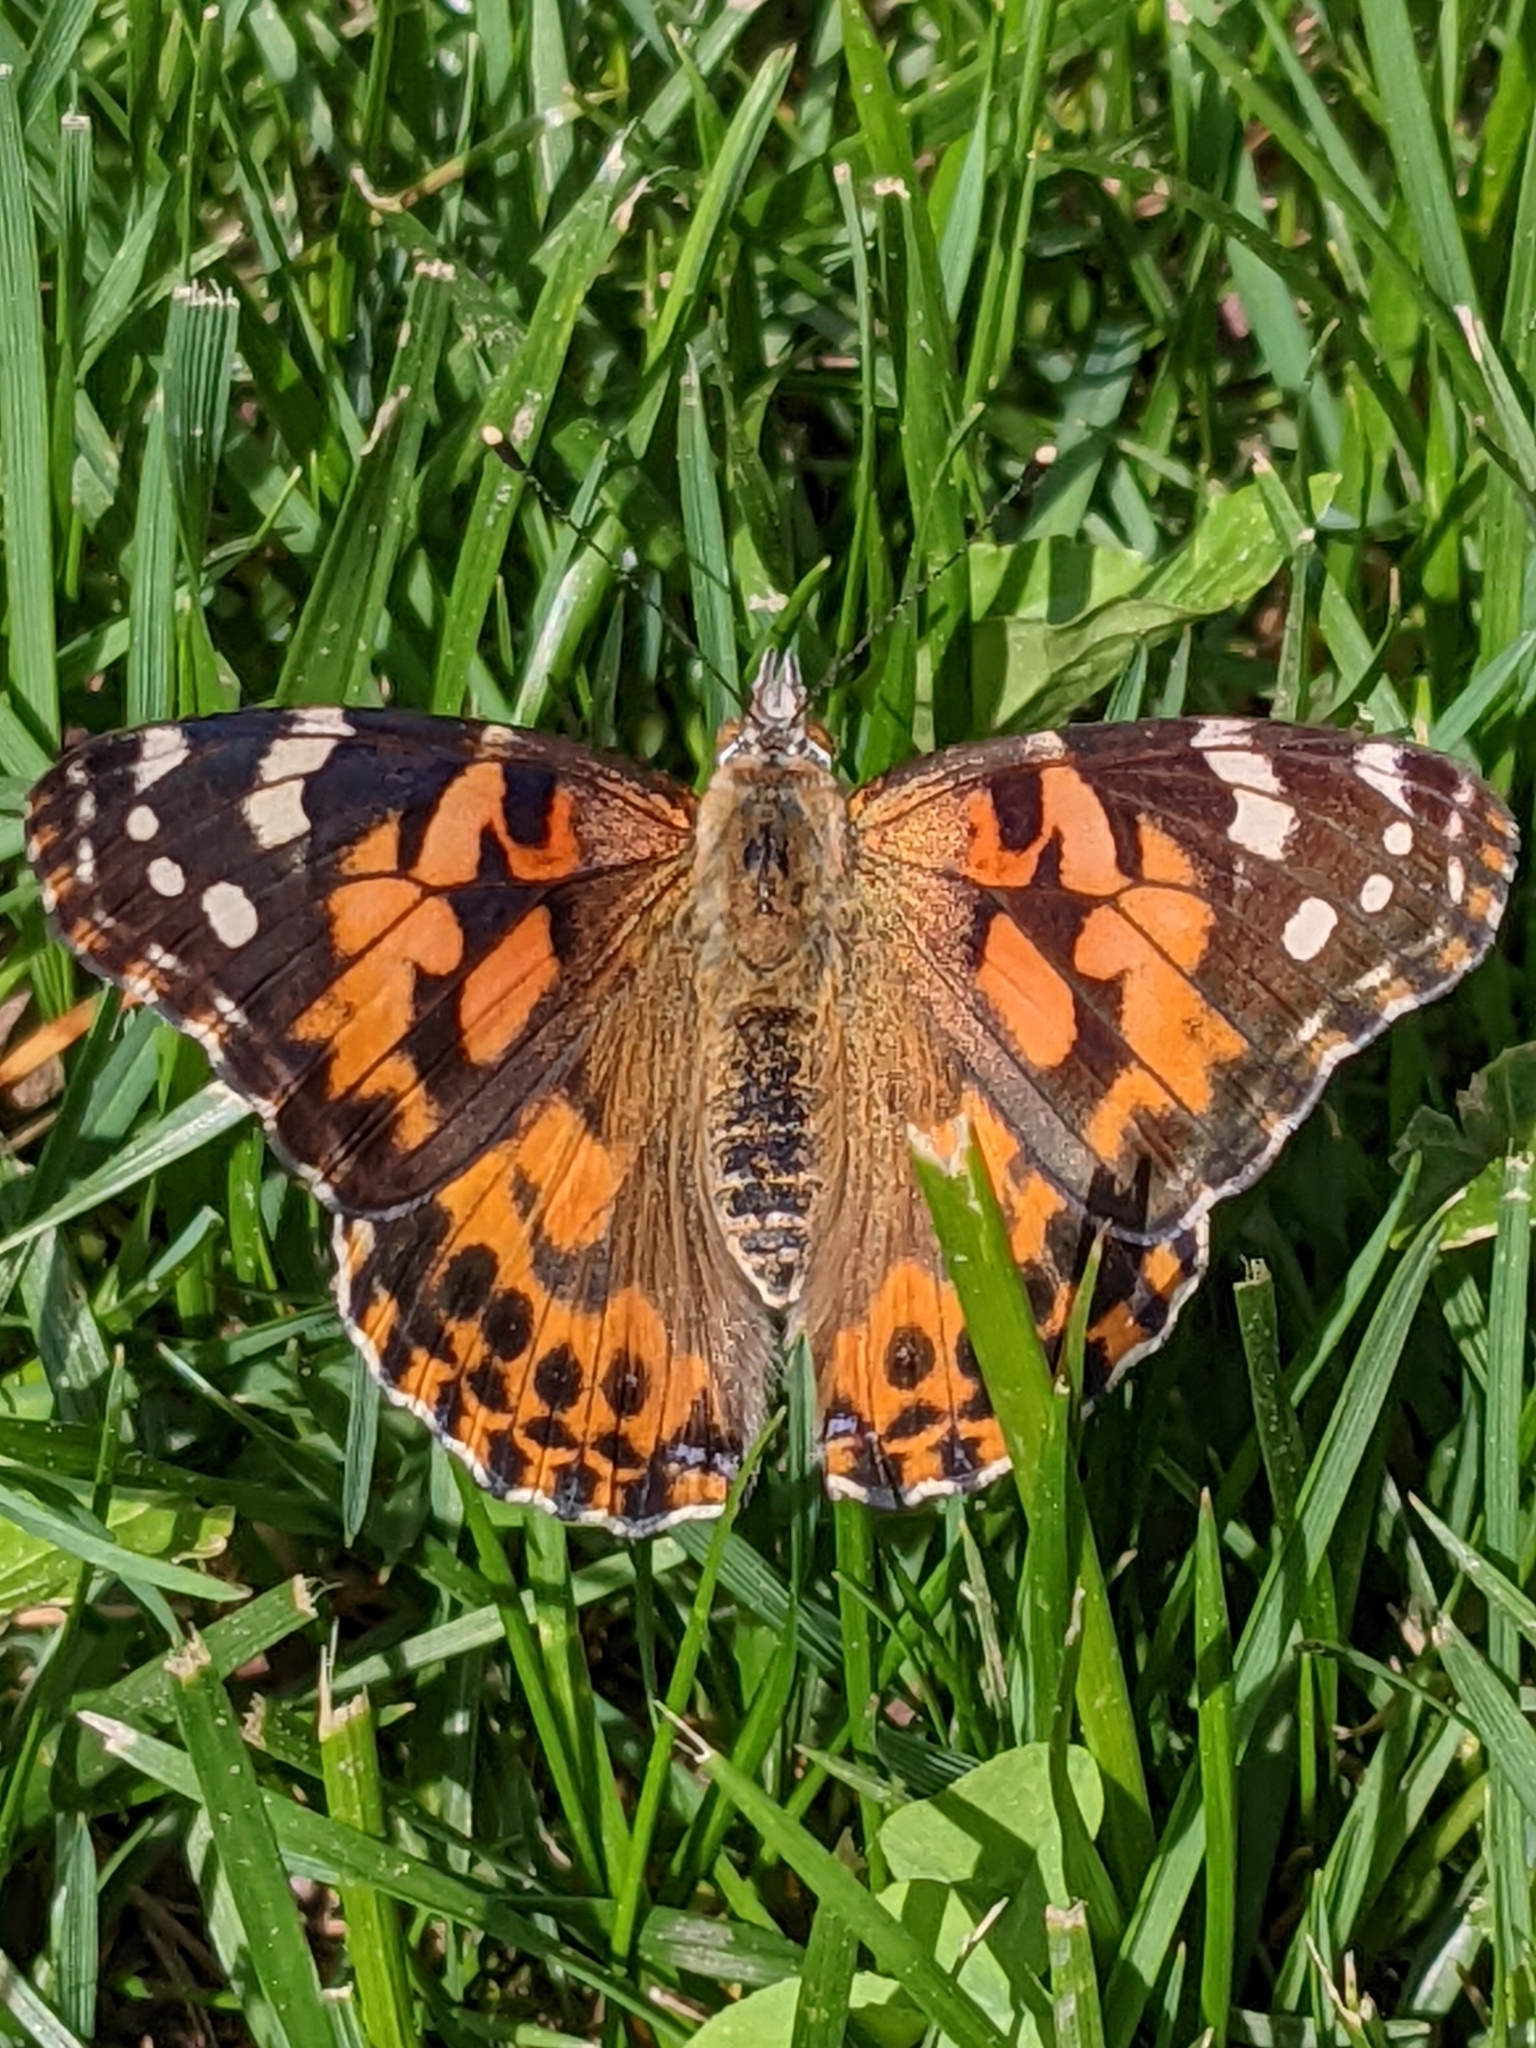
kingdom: Animalia
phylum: Arthropoda
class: Insecta
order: Lepidoptera
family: Nymphalidae
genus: Vanessa
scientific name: Vanessa cardui
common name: Painted lady
